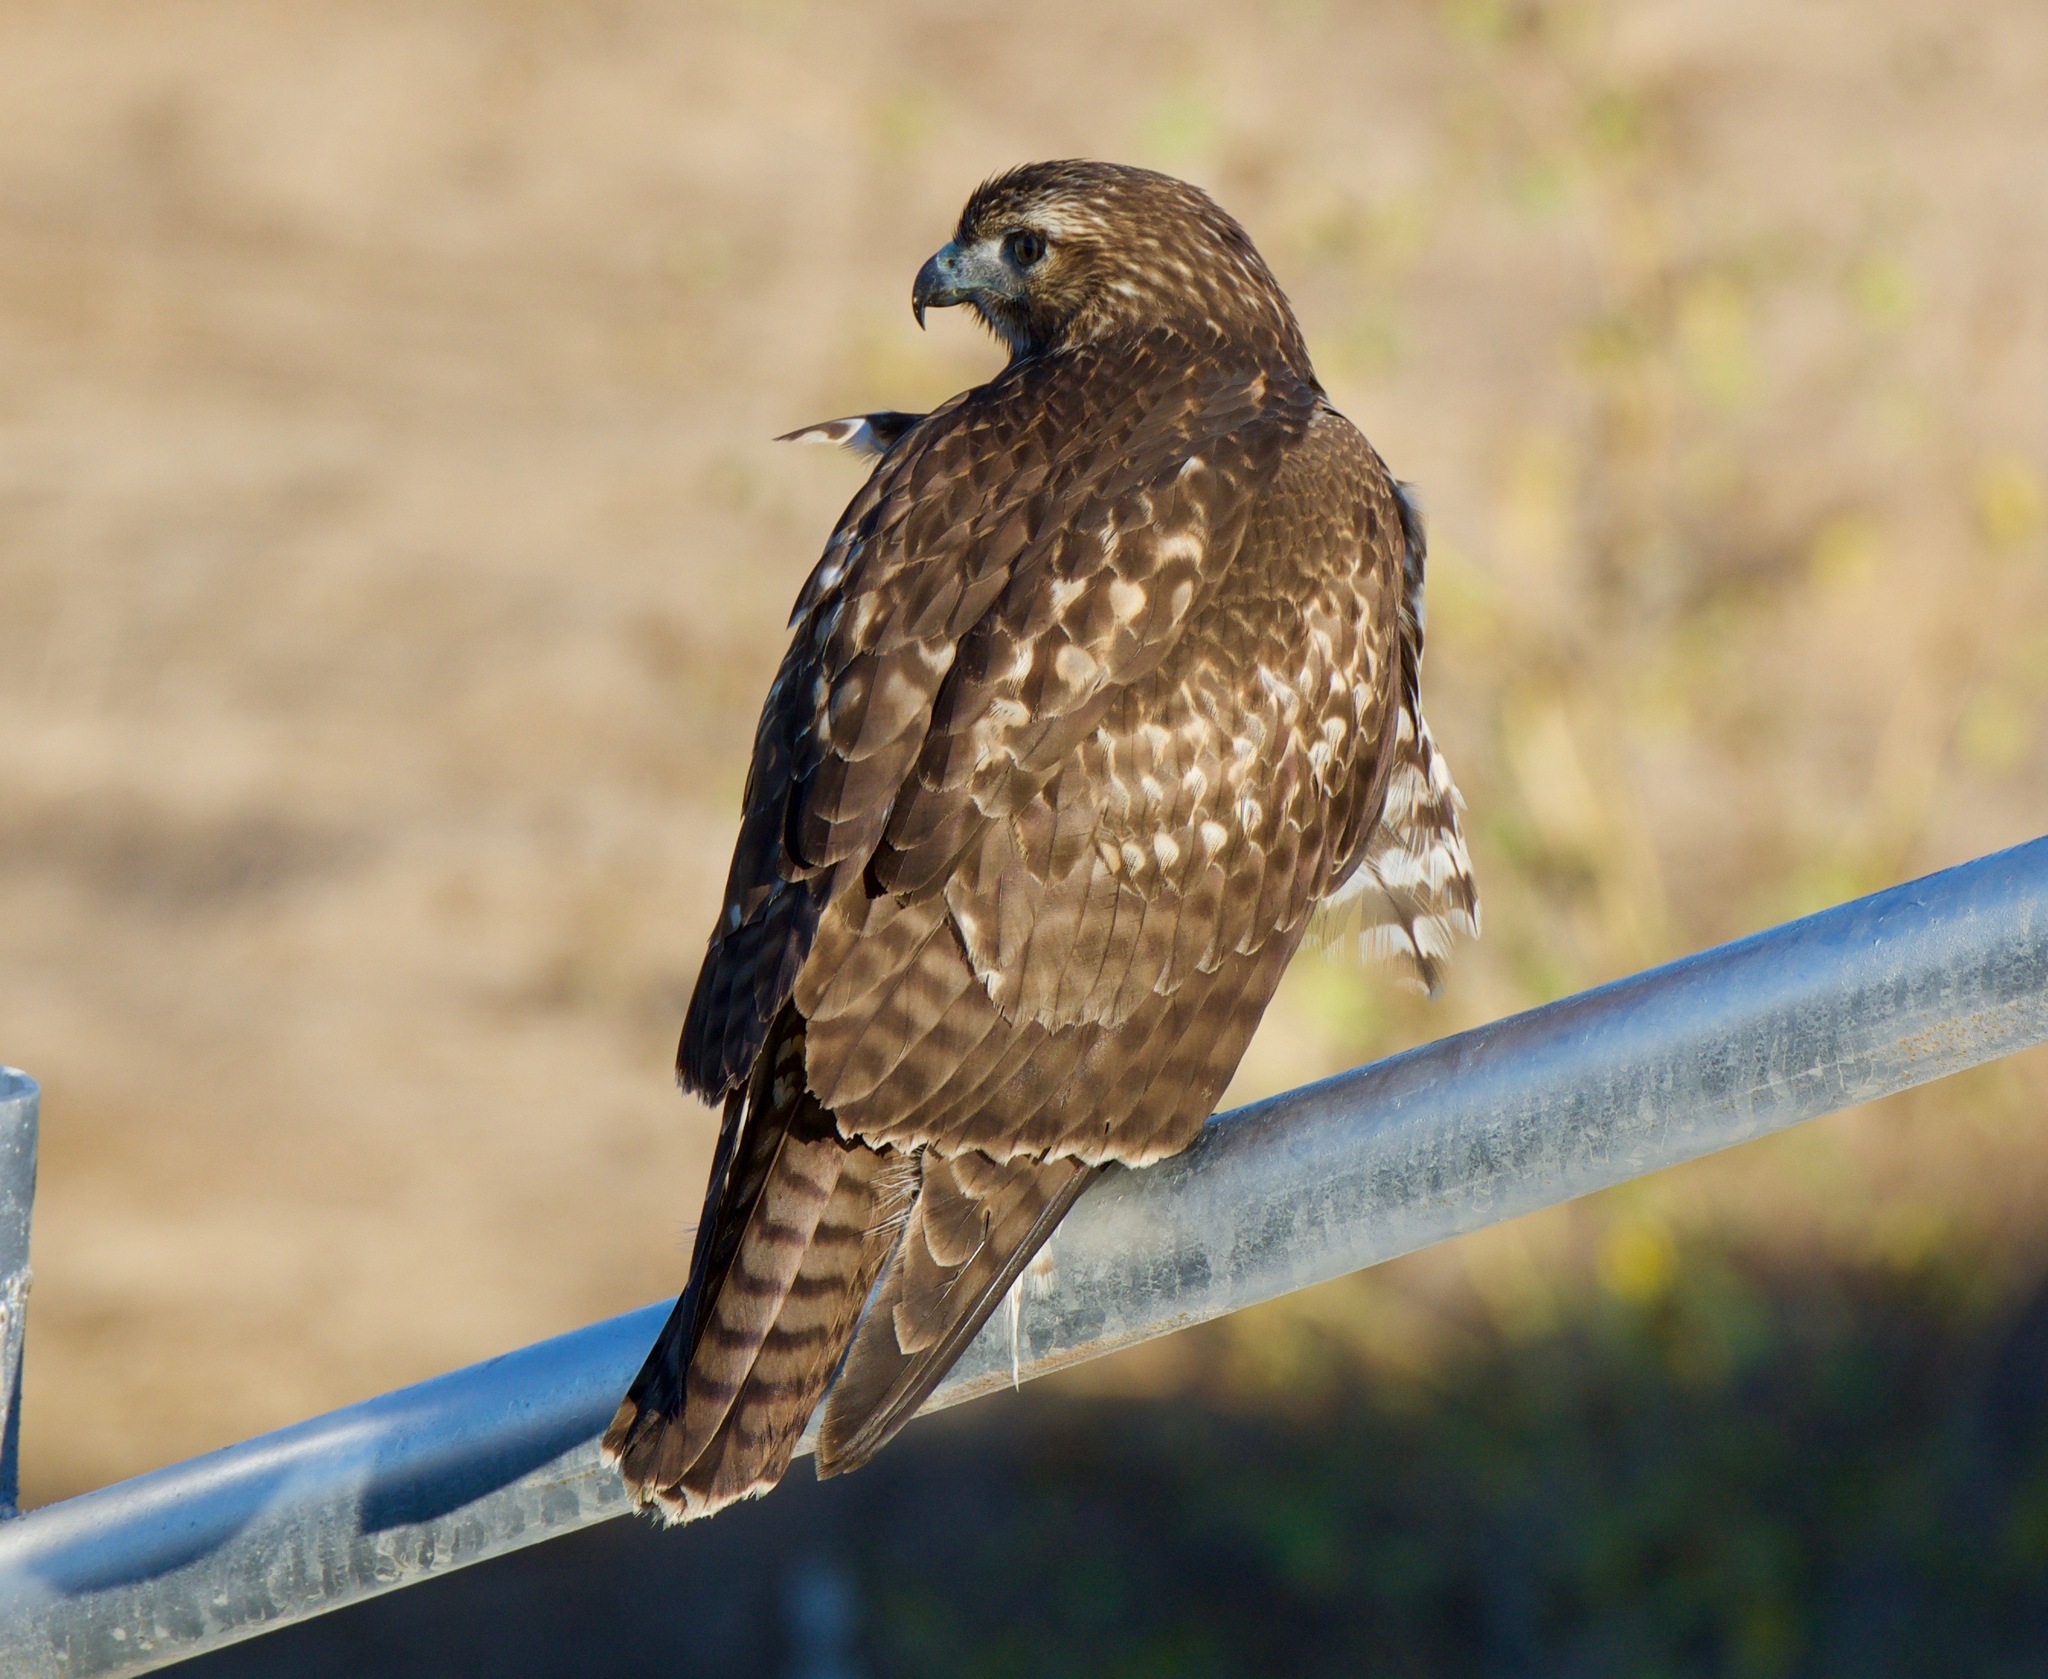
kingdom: Animalia
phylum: Chordata
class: Aves
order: Accipitriformes
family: Accipitridae
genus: Buteo
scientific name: Buteo jamaicensis
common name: Red-tailed hawk
